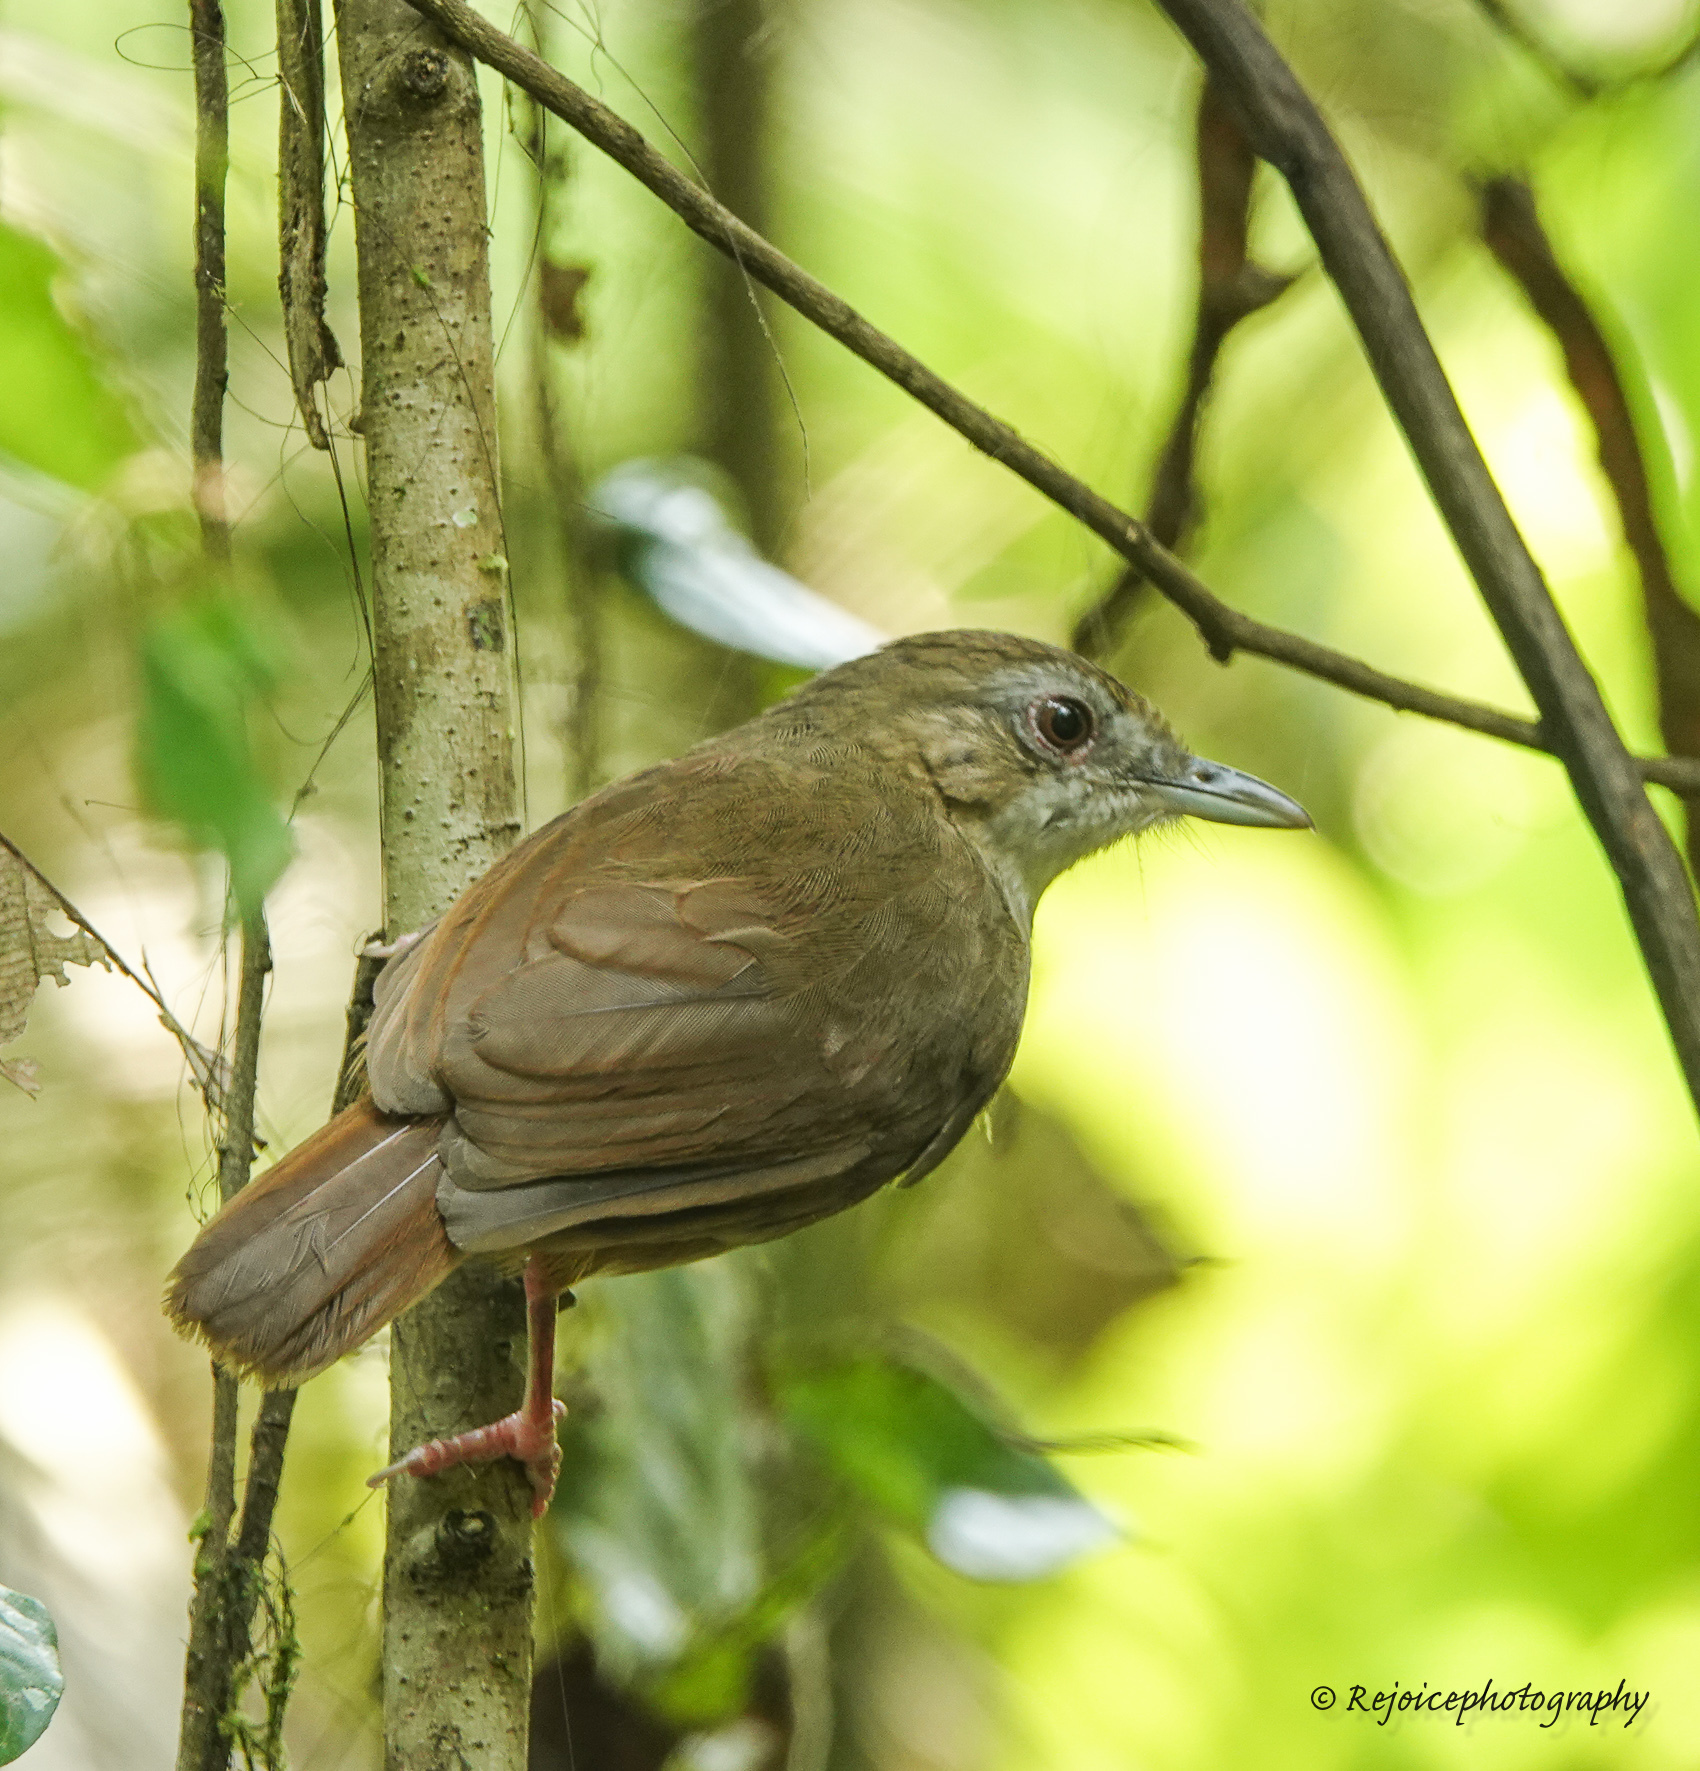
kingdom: Animalia
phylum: Chordata
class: Aves
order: Passeriformes
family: Pellorneidae
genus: Malacocincla
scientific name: Malacocincla abbotti
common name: Abbott's babbler
